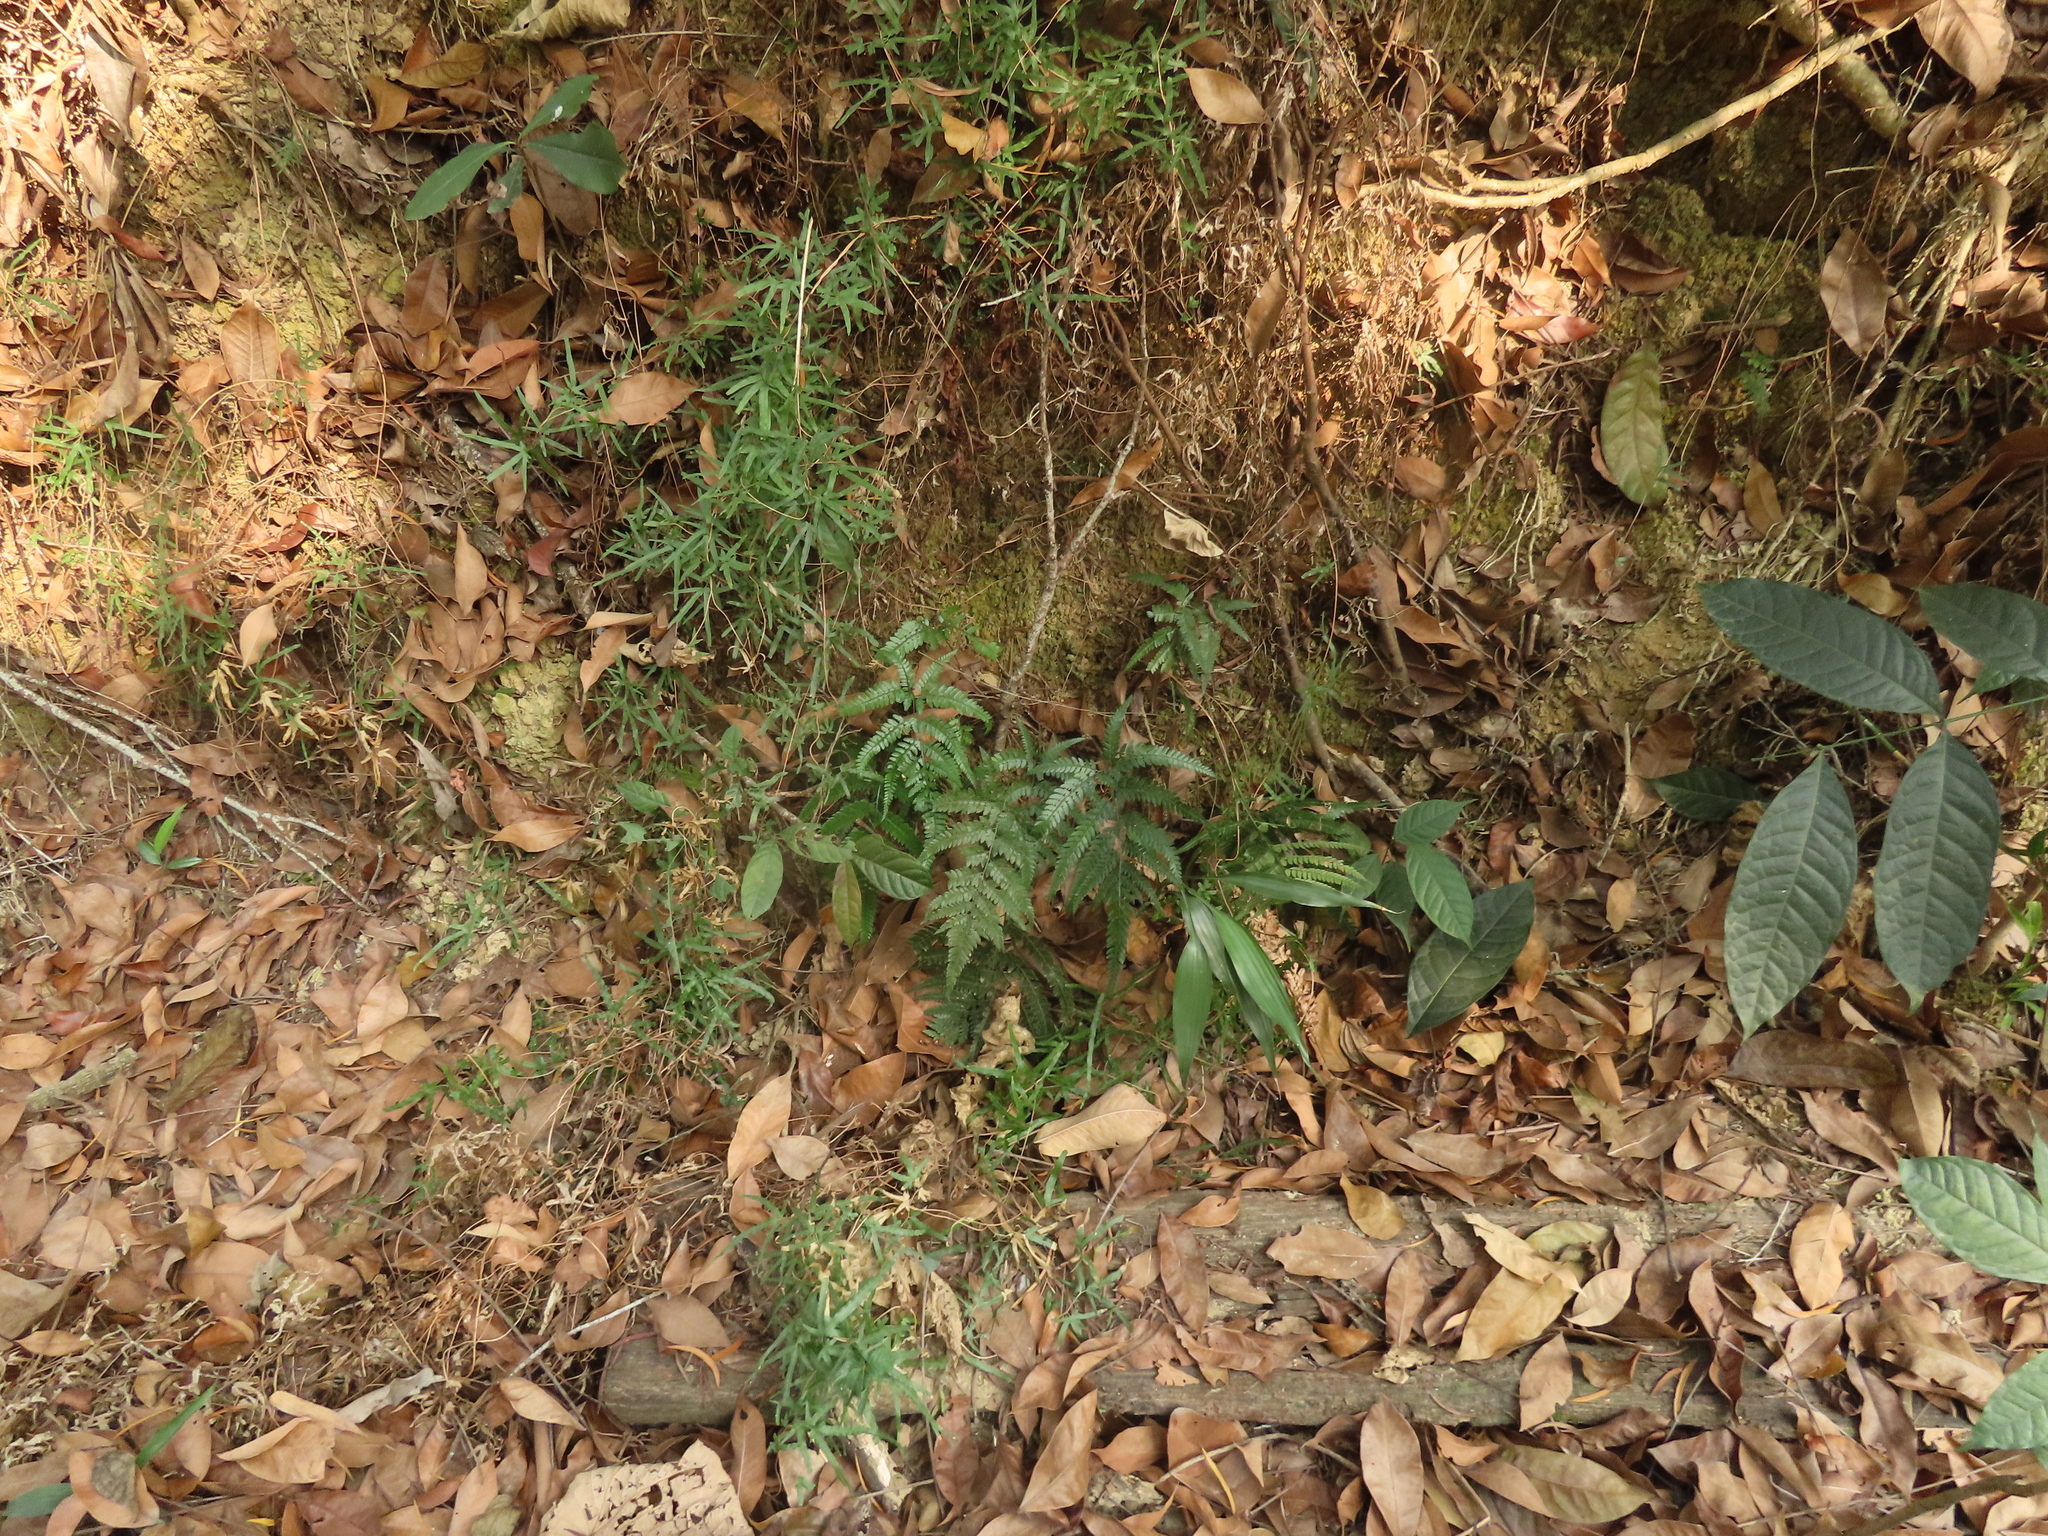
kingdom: Plantae
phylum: Tracheophyta
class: Polypodiopsida
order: Polypodiales
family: Dryopteridaceae
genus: Arachniodes
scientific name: Arachniodes aristata
